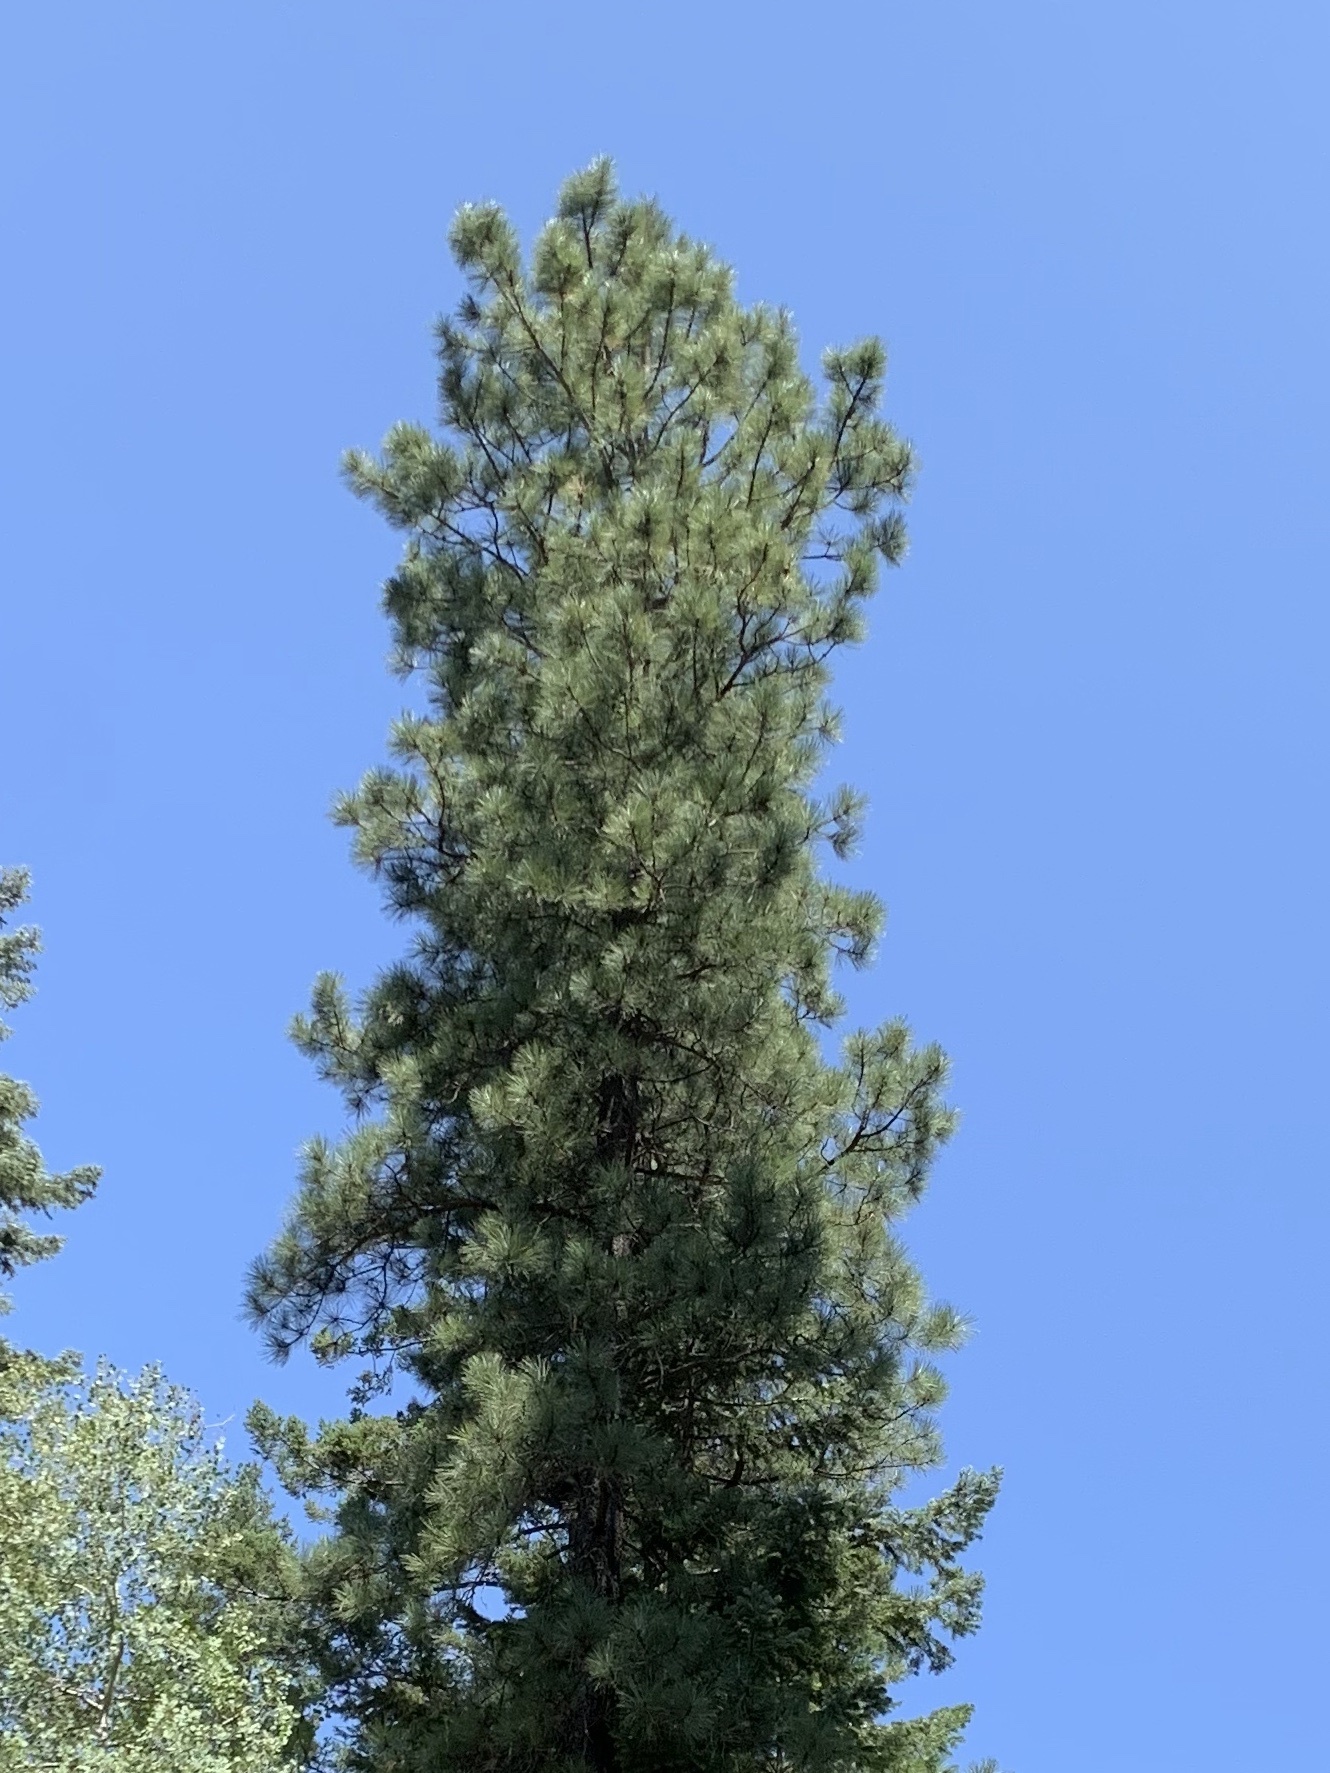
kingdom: Plantae
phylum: Tracheophyta
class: Pinopsida
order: Pinales
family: Pinaceae
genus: Pinus
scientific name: Pinus ponderosa
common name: Western yellow-pine
